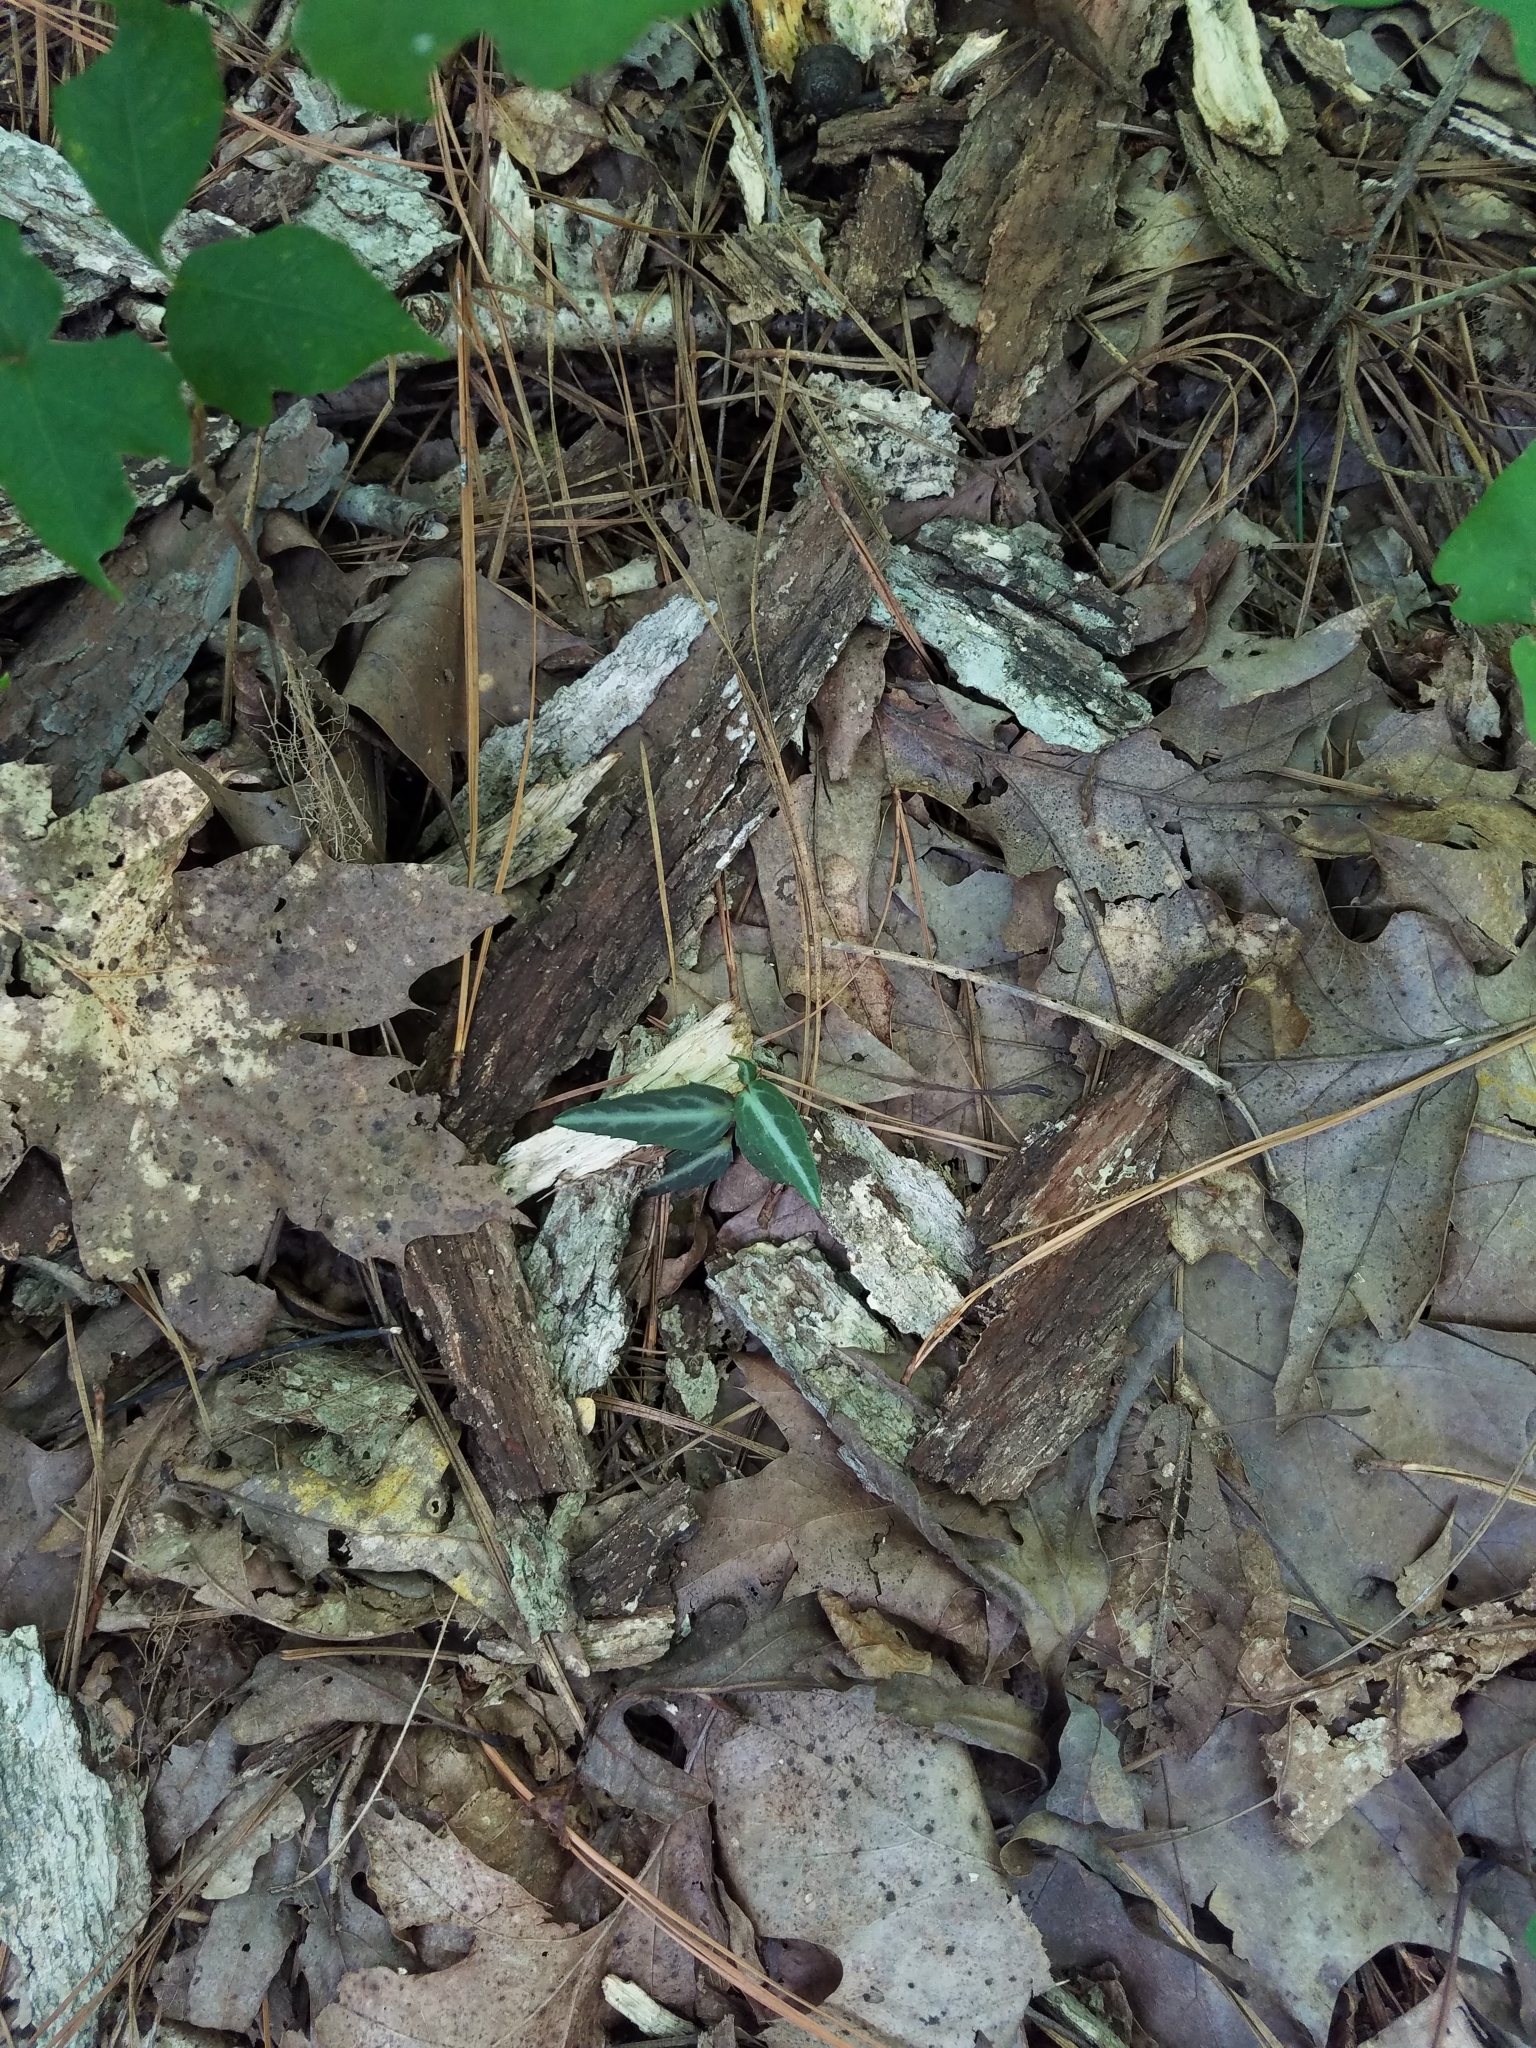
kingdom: Plantae
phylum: Tracheophyta
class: Magnoliopsida
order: Ericales
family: Ericaceae
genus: Chimaphila
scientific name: Chimaphila maculata
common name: Spotted pipsissewa
